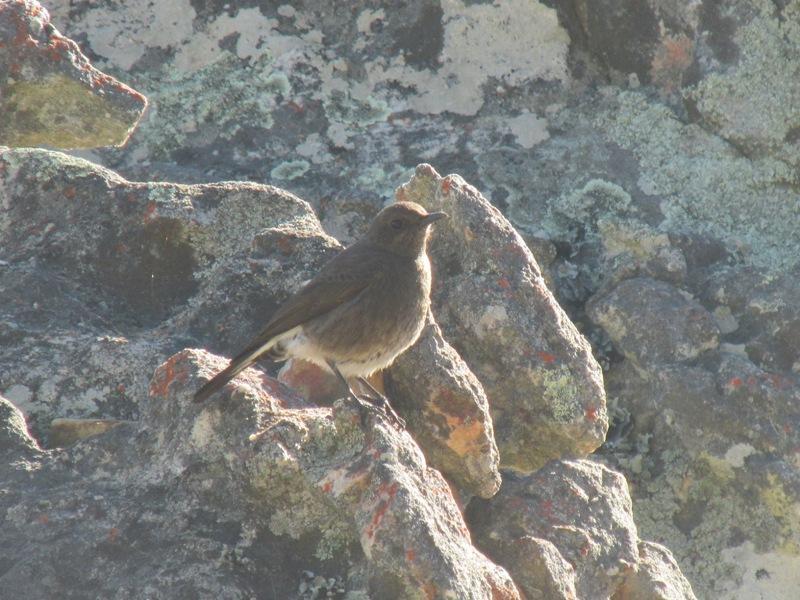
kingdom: Animalia
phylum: Chordata
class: Aves
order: Passeriformes
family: Muscicapidae
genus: Oenanthe
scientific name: Oenanthe monticola
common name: Mountain wheatear
